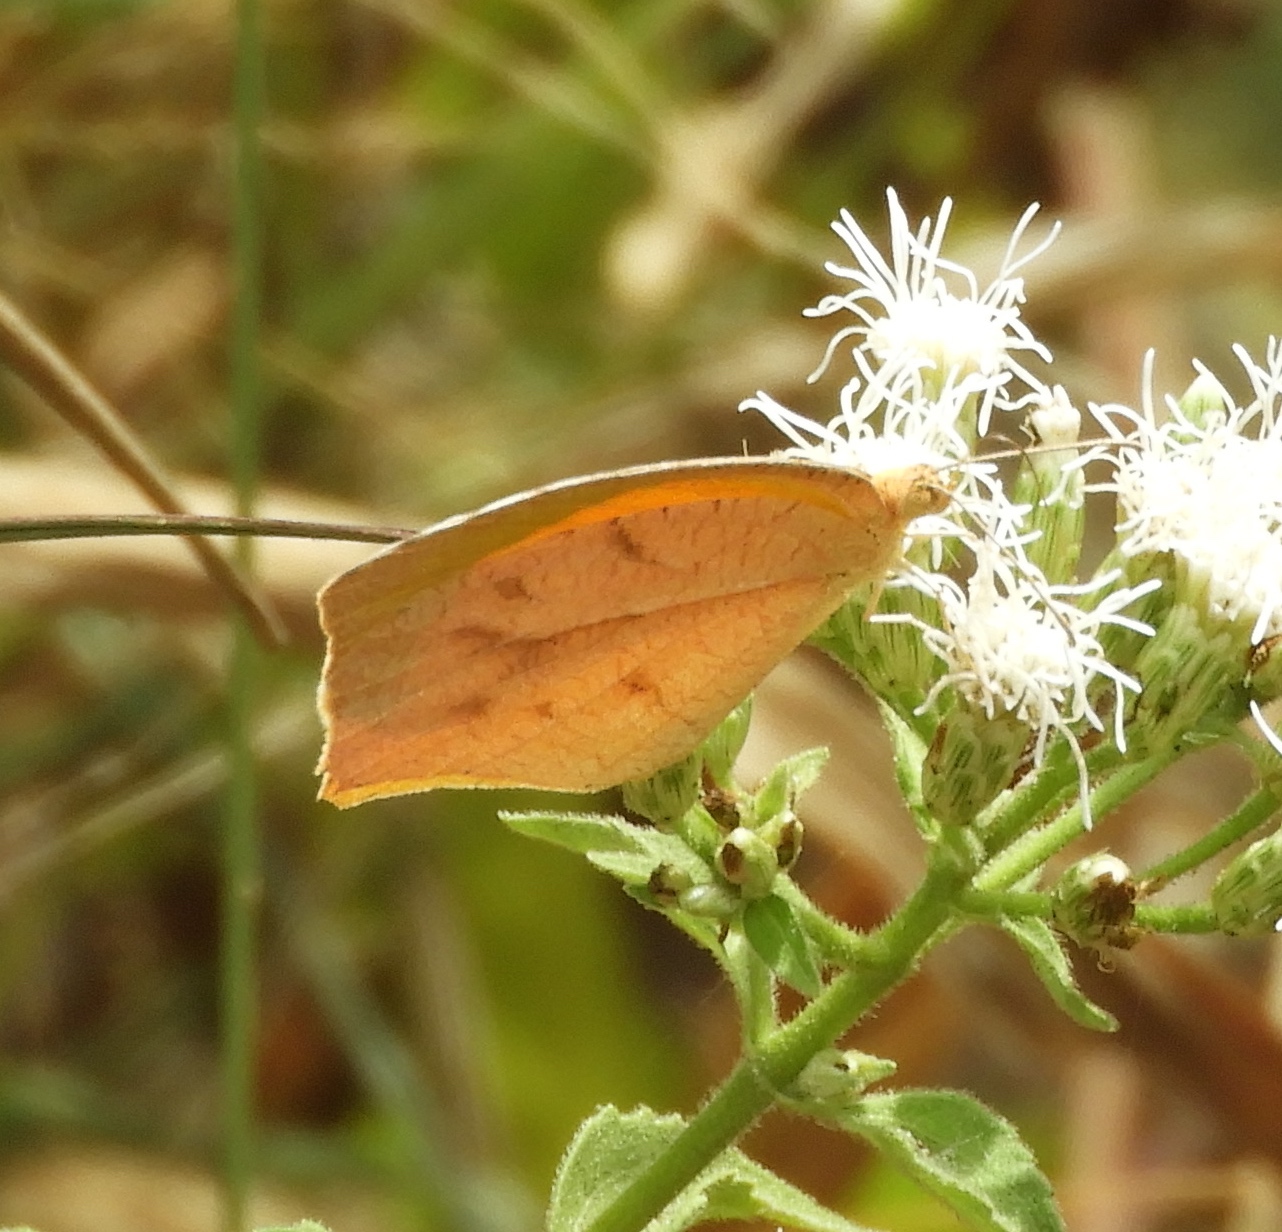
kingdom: Animalia
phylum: Arthropoda
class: Insecta
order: Lepidoptera
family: Pieridae
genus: Pyrisitia
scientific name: Pyrisitia proterpia
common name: Tailed orange
